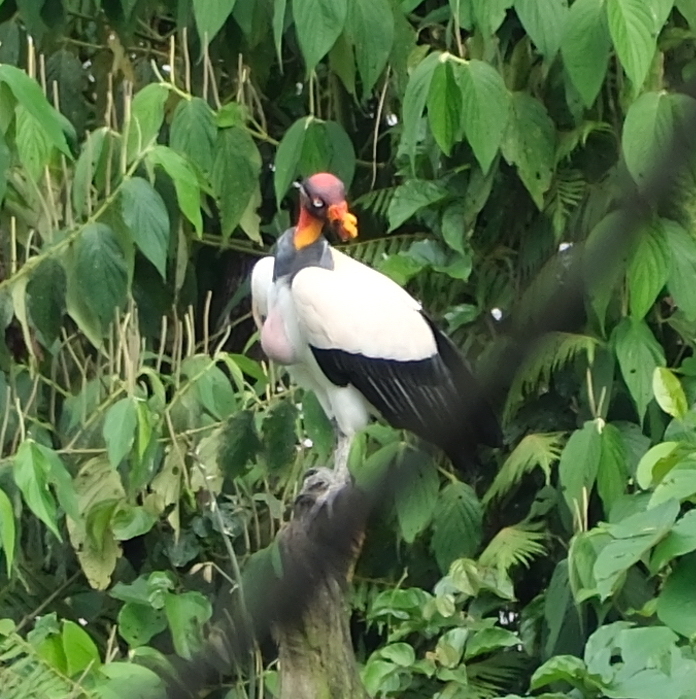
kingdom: Animalia
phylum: Chordata
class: Aves
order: Accipitriformes
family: Cathartidae
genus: Sarcoramphus
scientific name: Sarcoramphus papa
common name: King vulture
